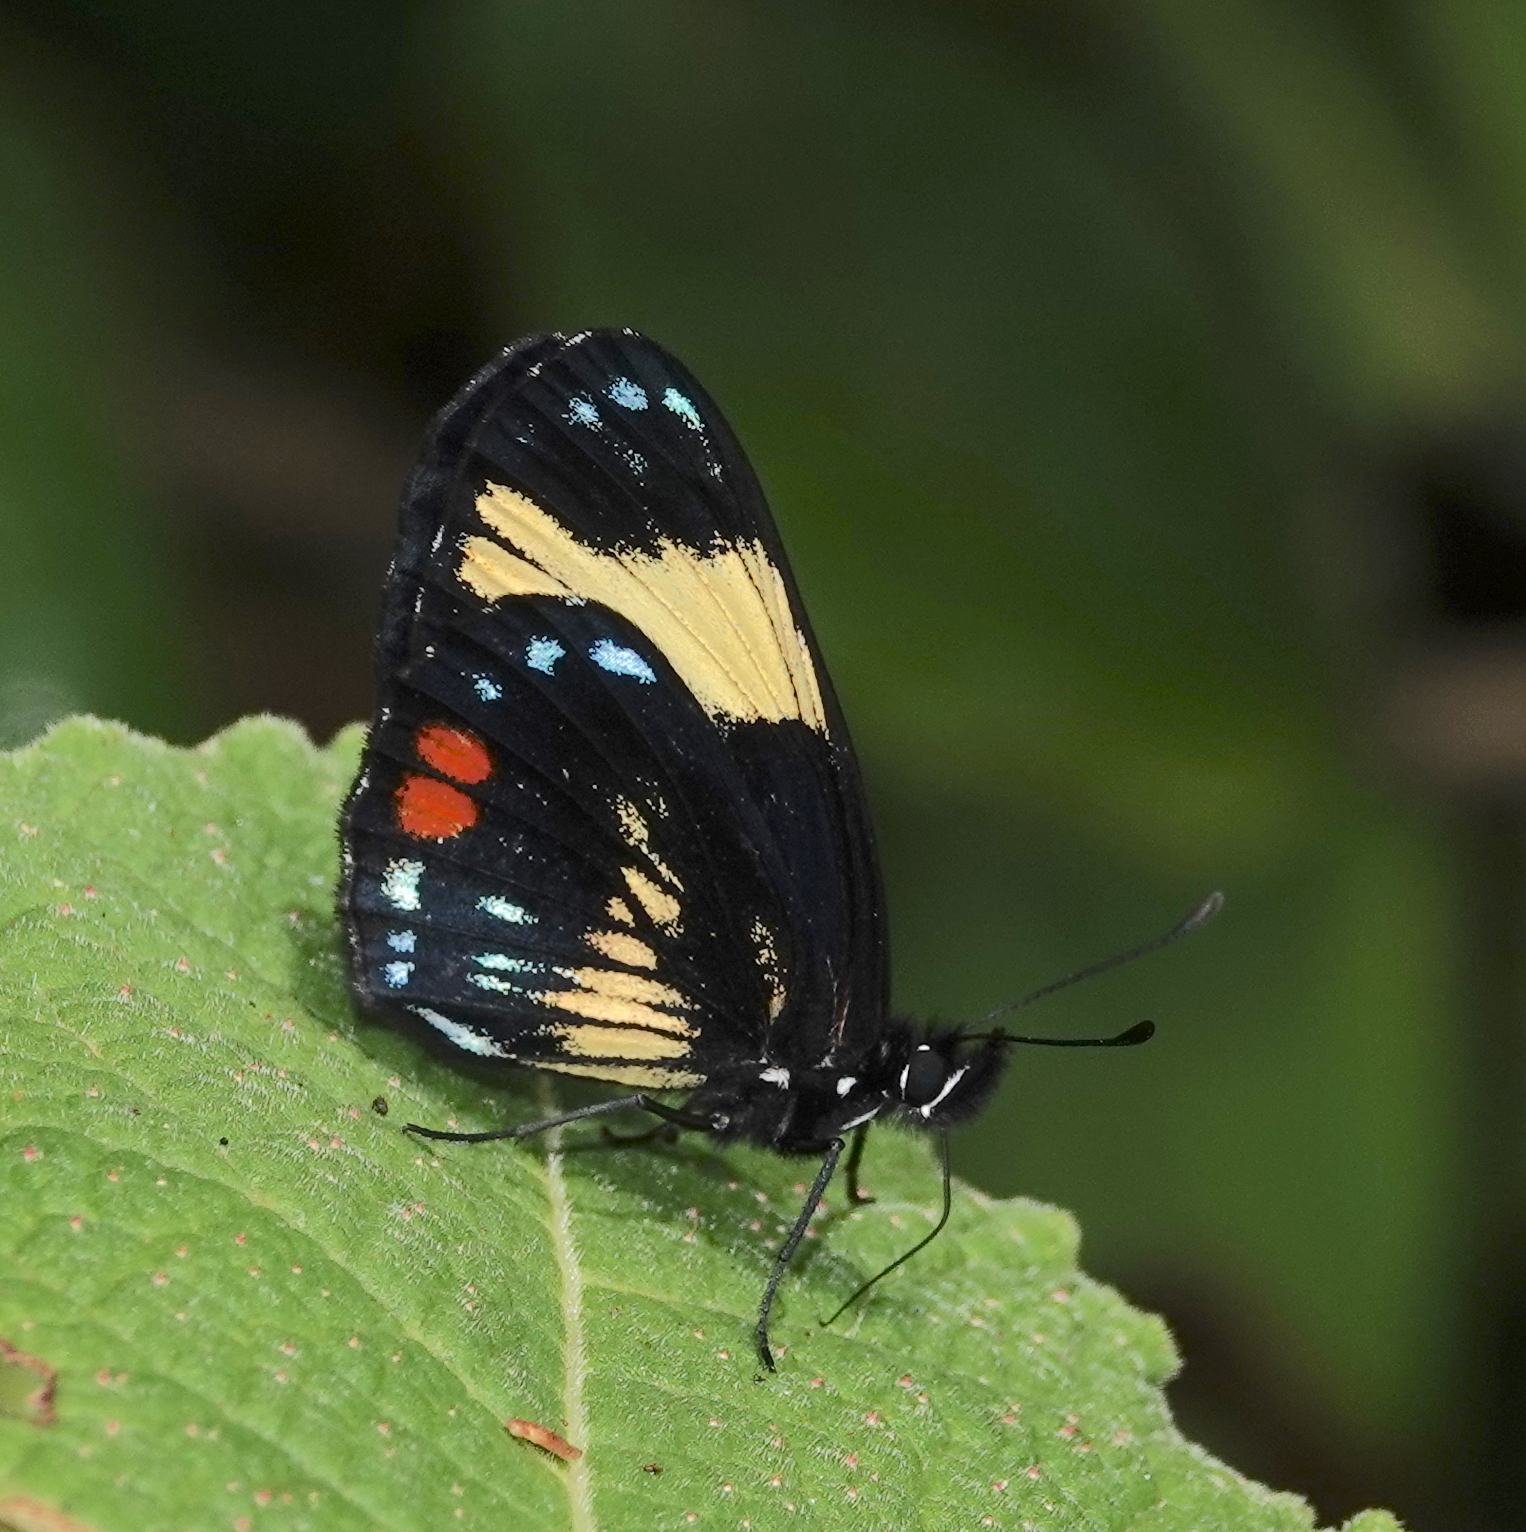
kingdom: Animalia
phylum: Arthropoda
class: Insecta
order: Lepidoptera
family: Nymphalidae
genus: Eresia
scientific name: Eresia levina
